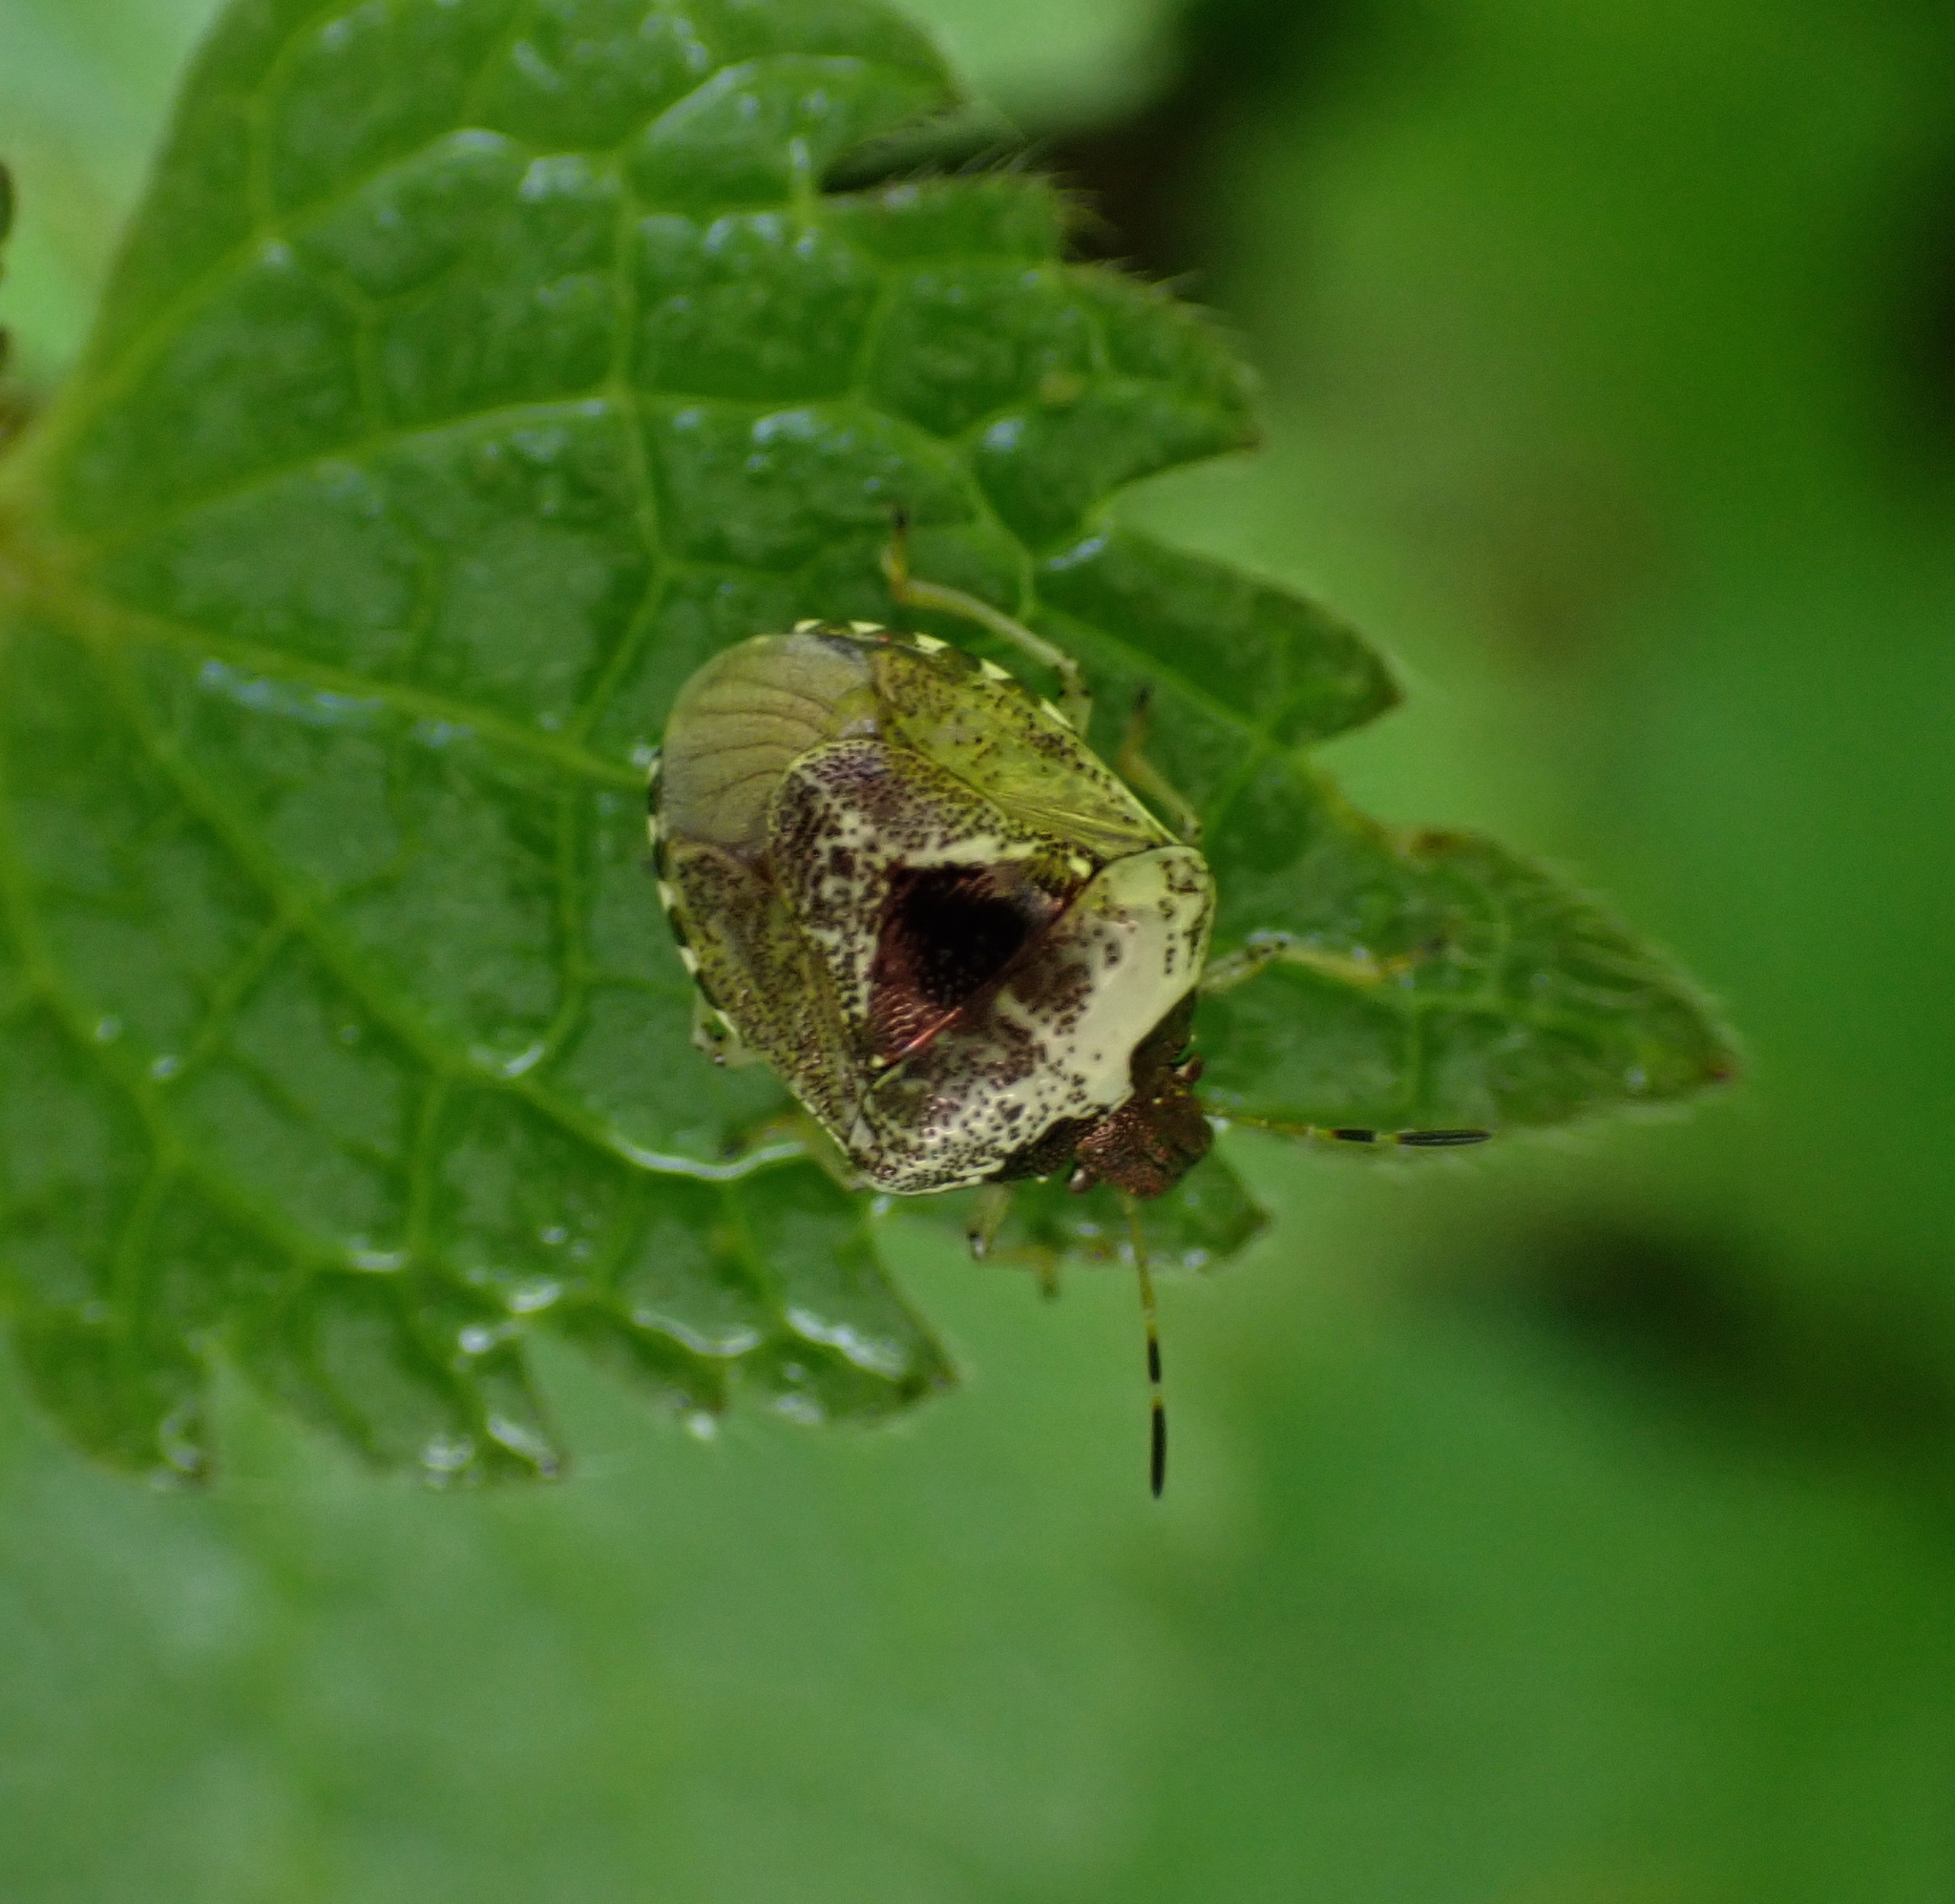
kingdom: Animalia
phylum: Arthropoda
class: Insecta
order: Hemiptera
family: Pentatomidae
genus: Eysarcoris
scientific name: Eysarcoris venustissimus
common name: Woundwort shieldbug
